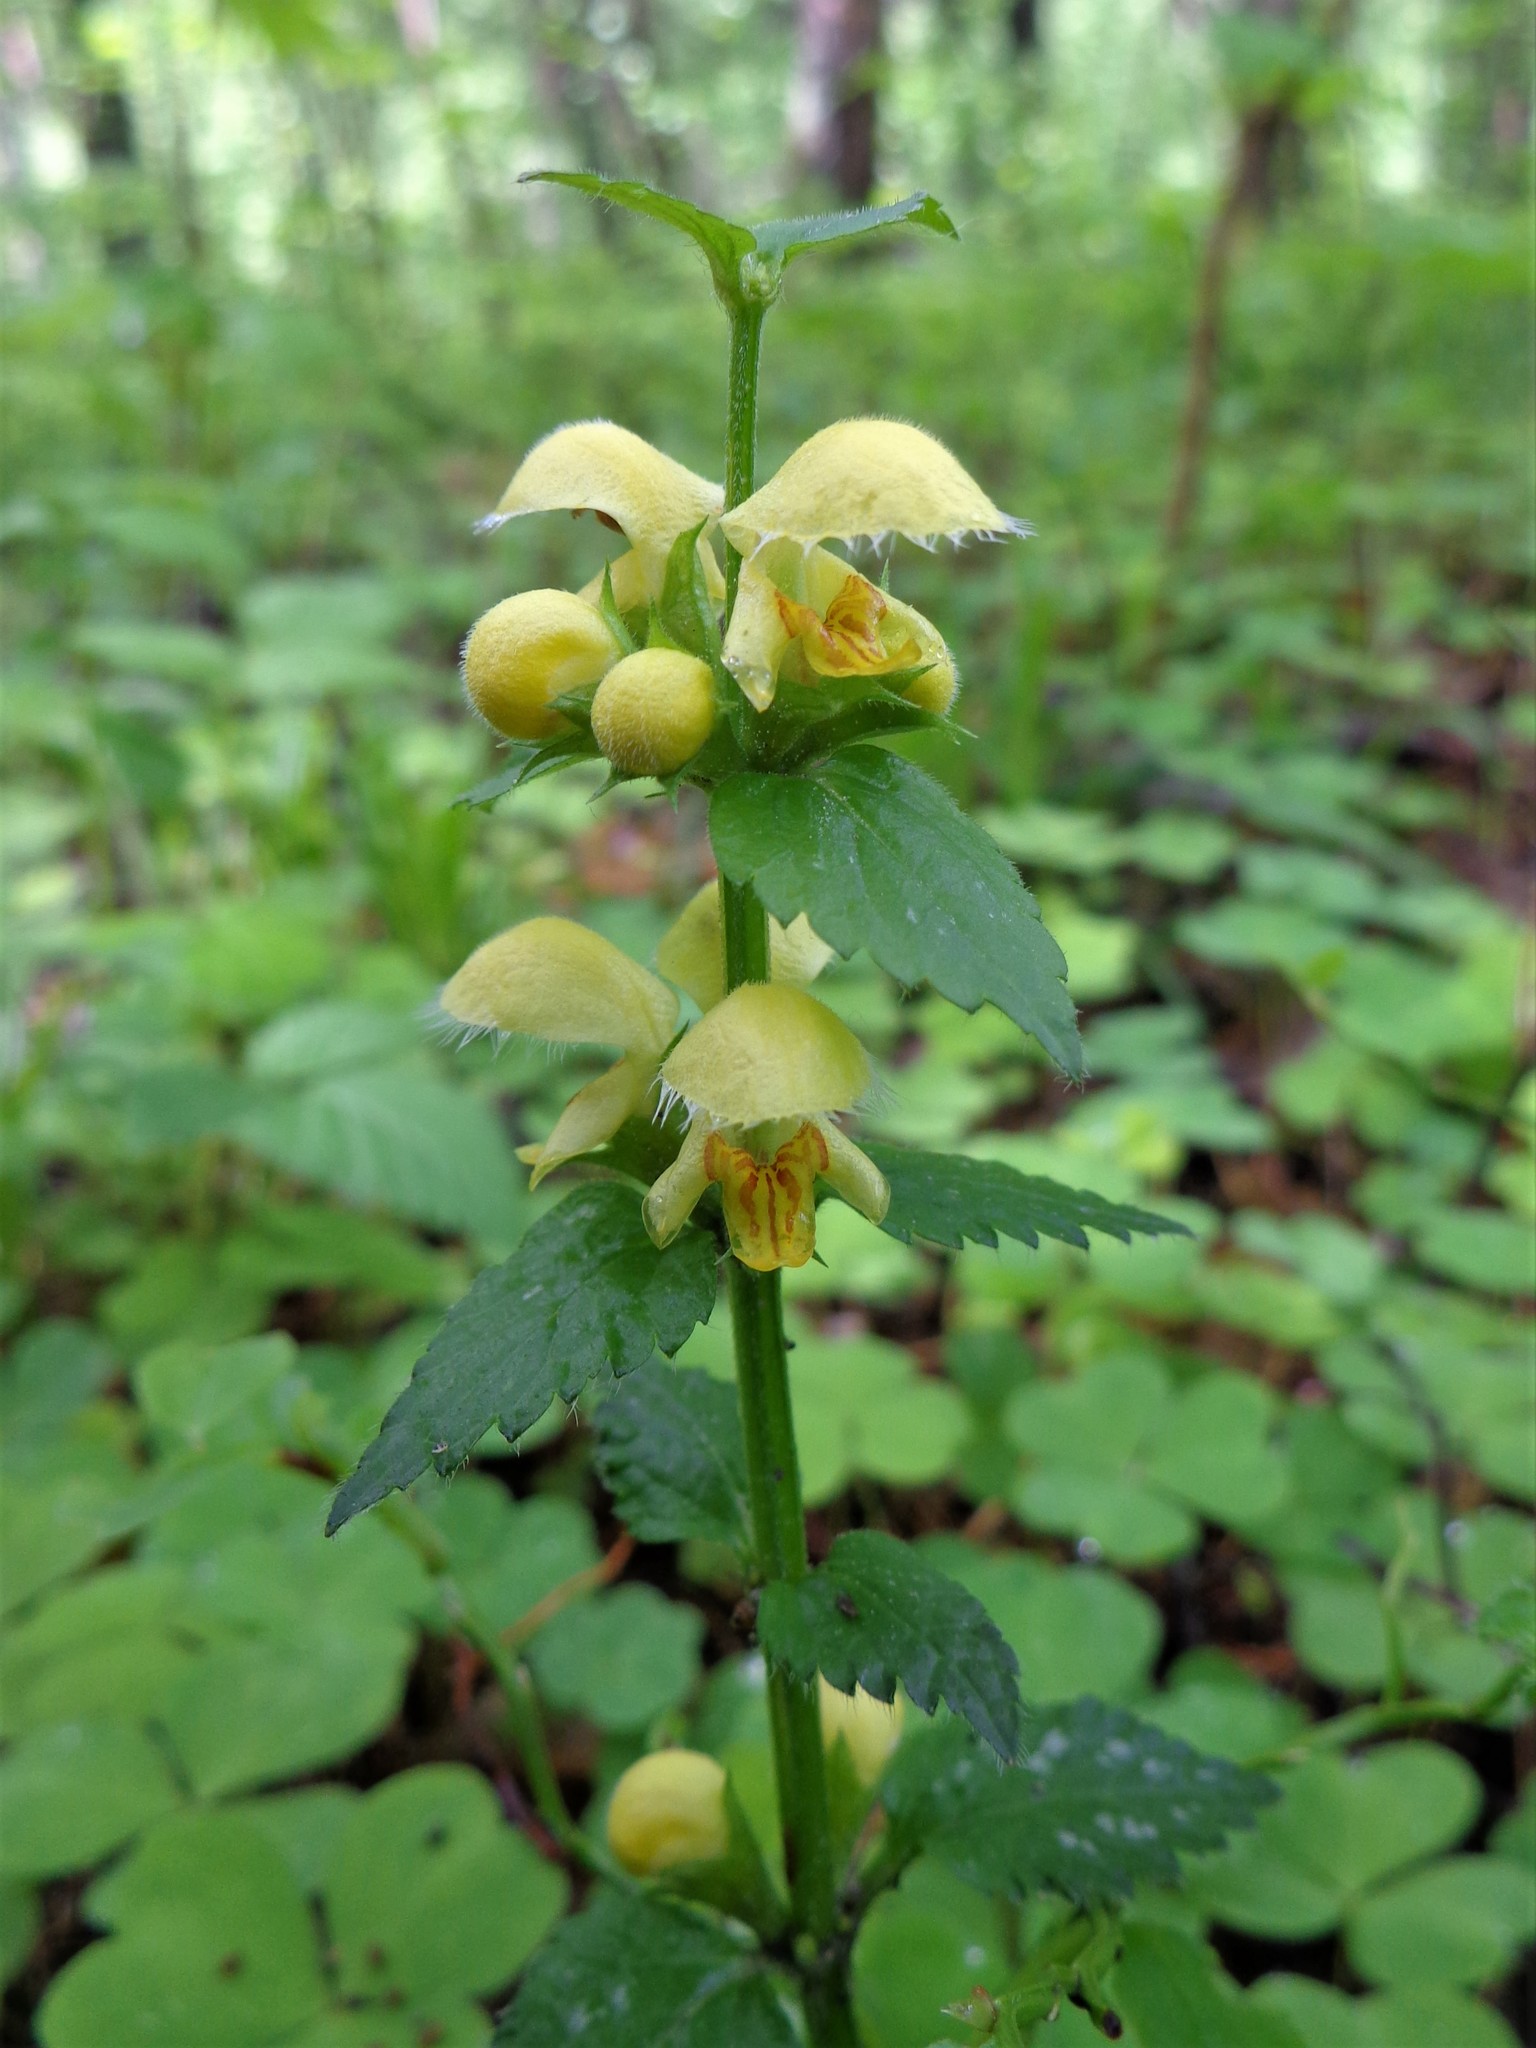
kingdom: Plantae
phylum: Tracheophyta
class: Magnoliopsida
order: Lamiales
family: Lamiaceae
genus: Lamium
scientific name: Lamium galeobdolon
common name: Yellow archangel
